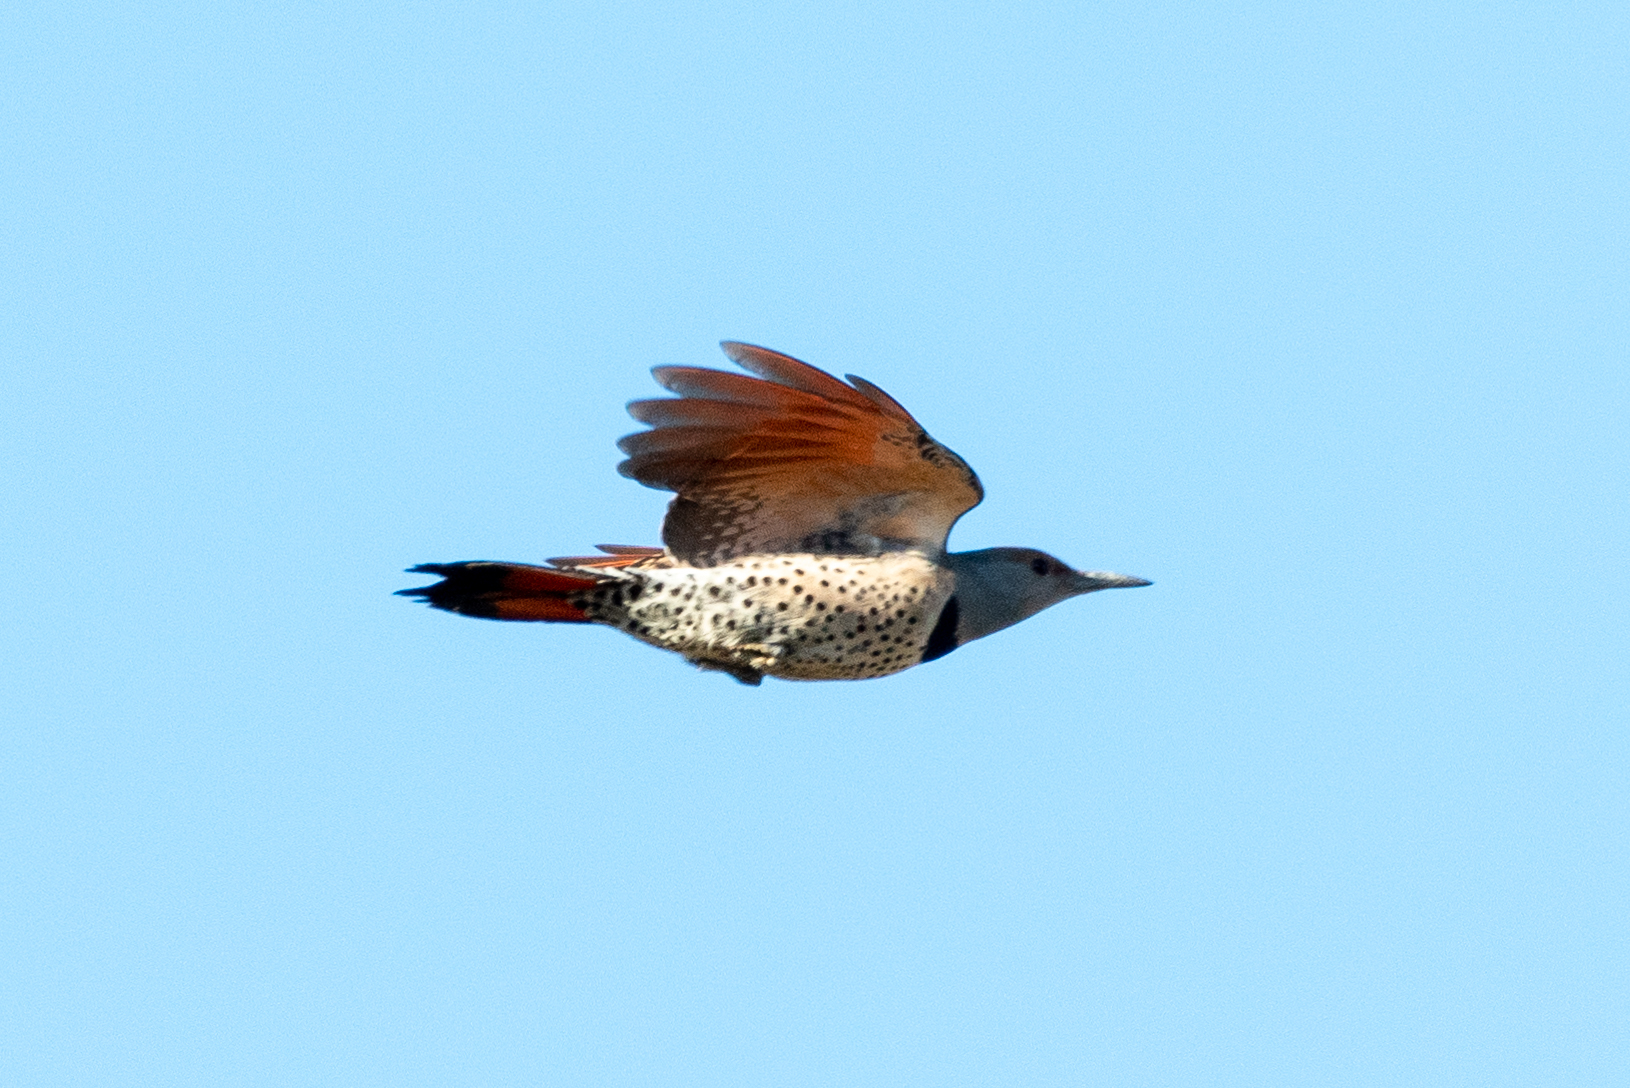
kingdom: Animalia
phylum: Chordata
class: Aves
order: Piciformes
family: Picidae
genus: Colaptes
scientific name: Colaptes auratus
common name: Northern flicker
